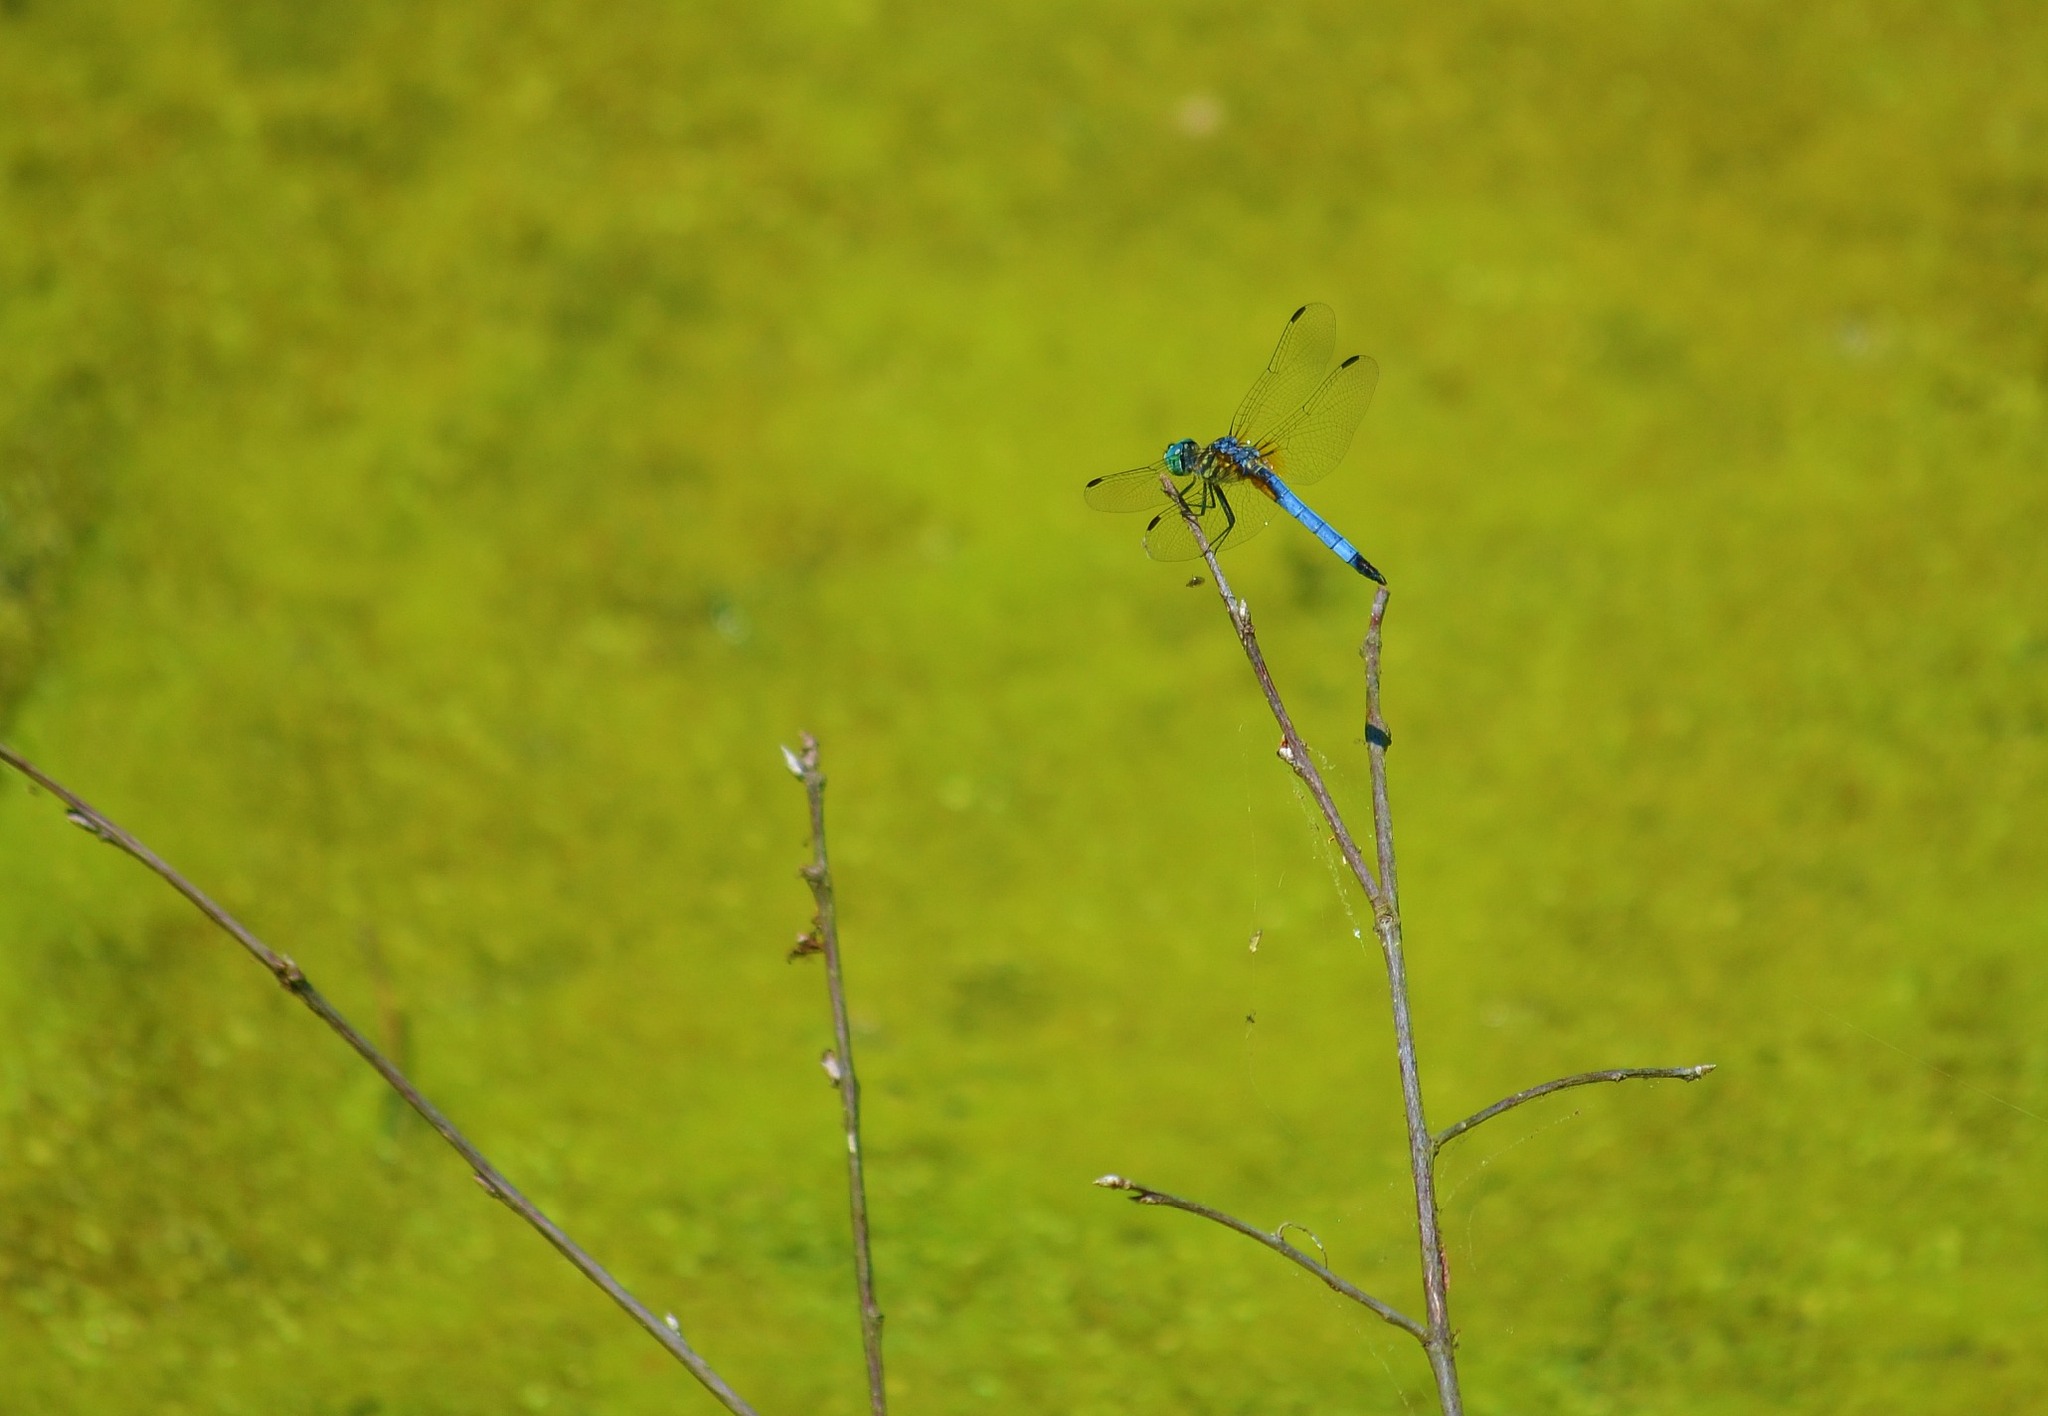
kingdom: Animalia
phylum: Arthropoda
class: Insecta
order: Odonata
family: Libellulidae
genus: Pachydiplax
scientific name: Pachydiplax longipennis
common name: Blue dasher
